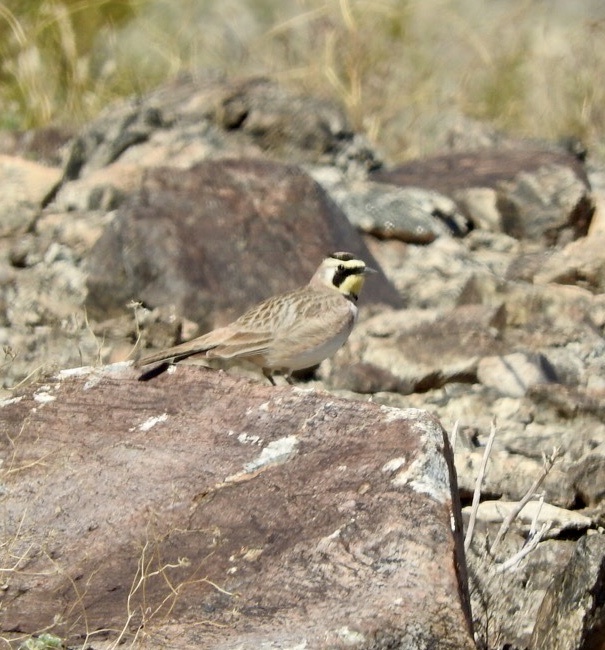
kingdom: Animalia
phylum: Chordata
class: Aves
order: Passeriformes
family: Alaudidae
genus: Eremophila
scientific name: Eremophila alpestris
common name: Horned lark
